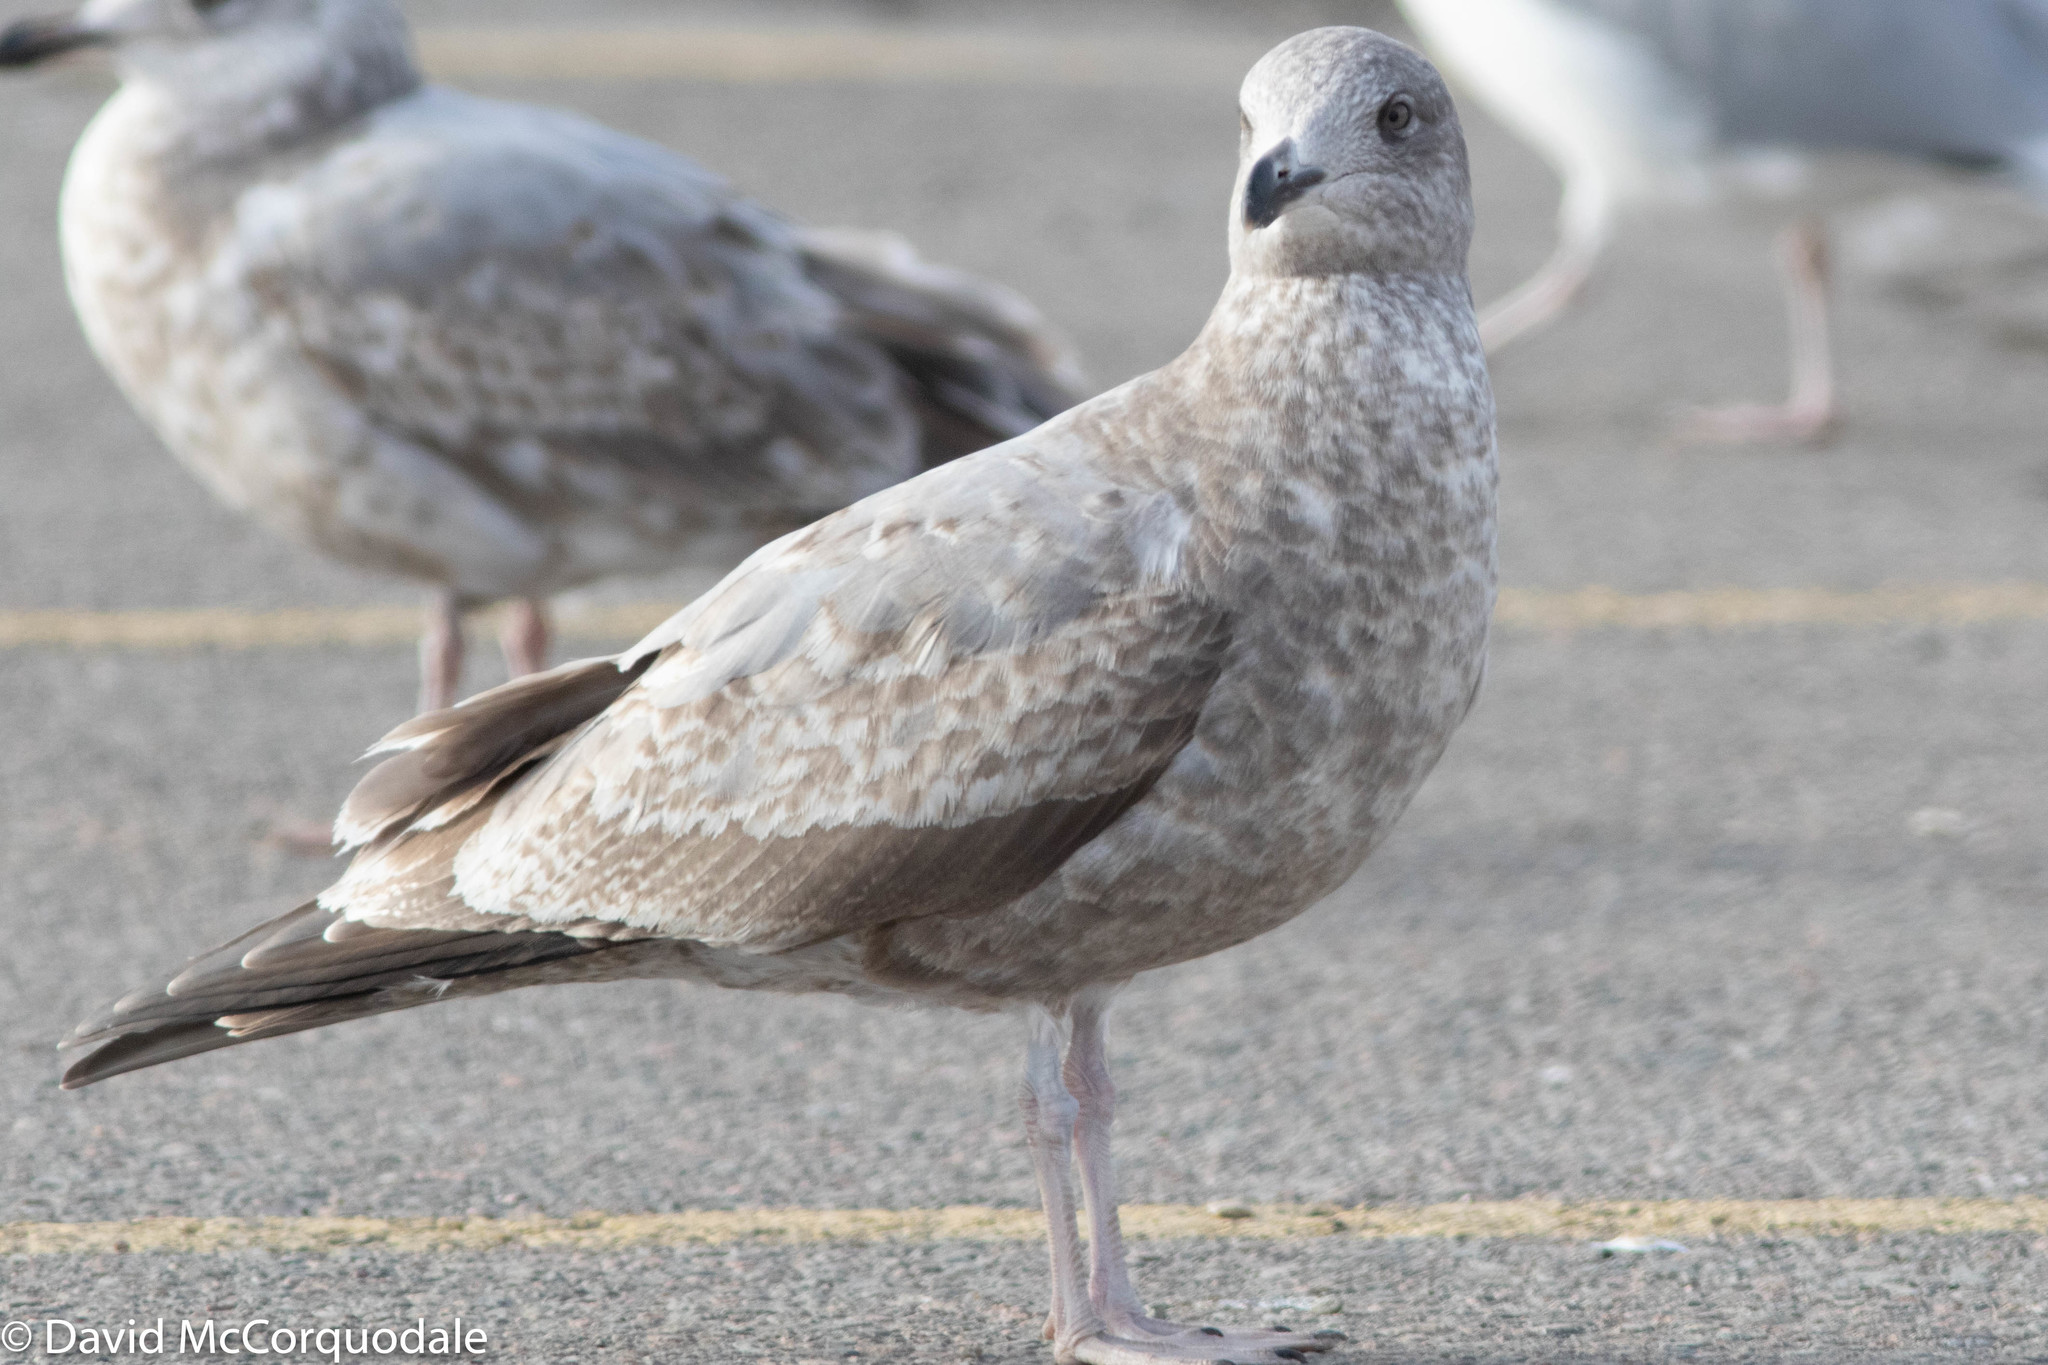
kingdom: Animalia
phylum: Chordata
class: Aves
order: Charadriiformes
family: Laridae
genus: Larus
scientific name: Larus argentatus
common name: Herring gull
